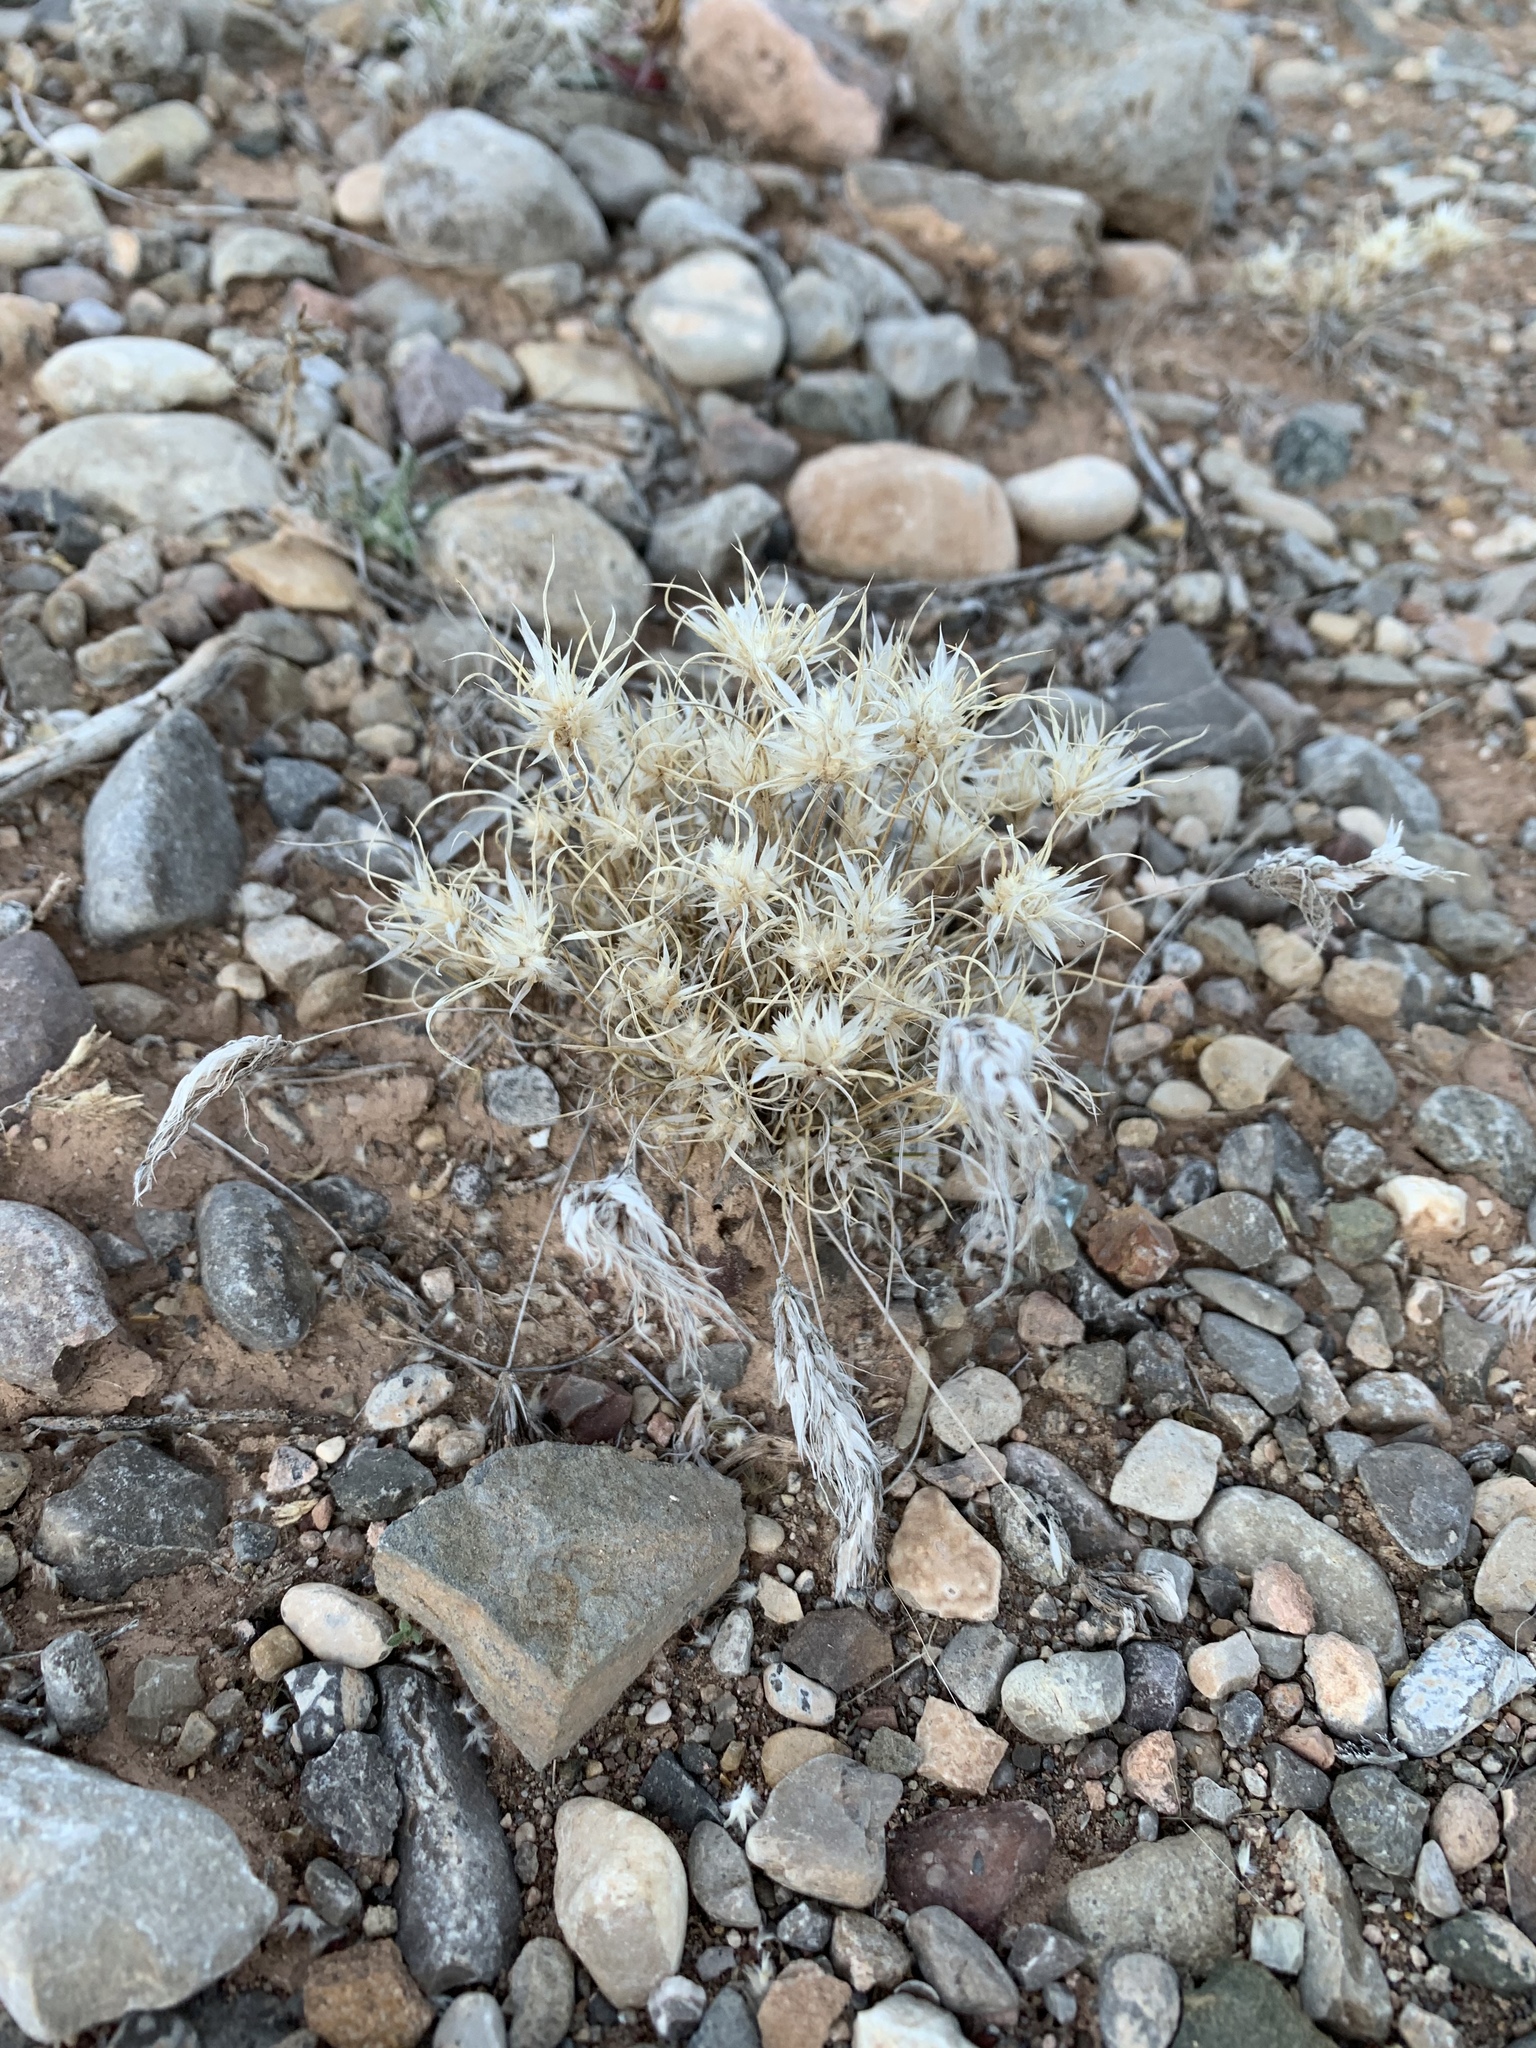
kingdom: Plantae
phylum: Tracheophyta
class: Liliopsida
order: Poales
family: Poaceae
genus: Dasyochloa
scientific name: Dasyochloa pulchella
